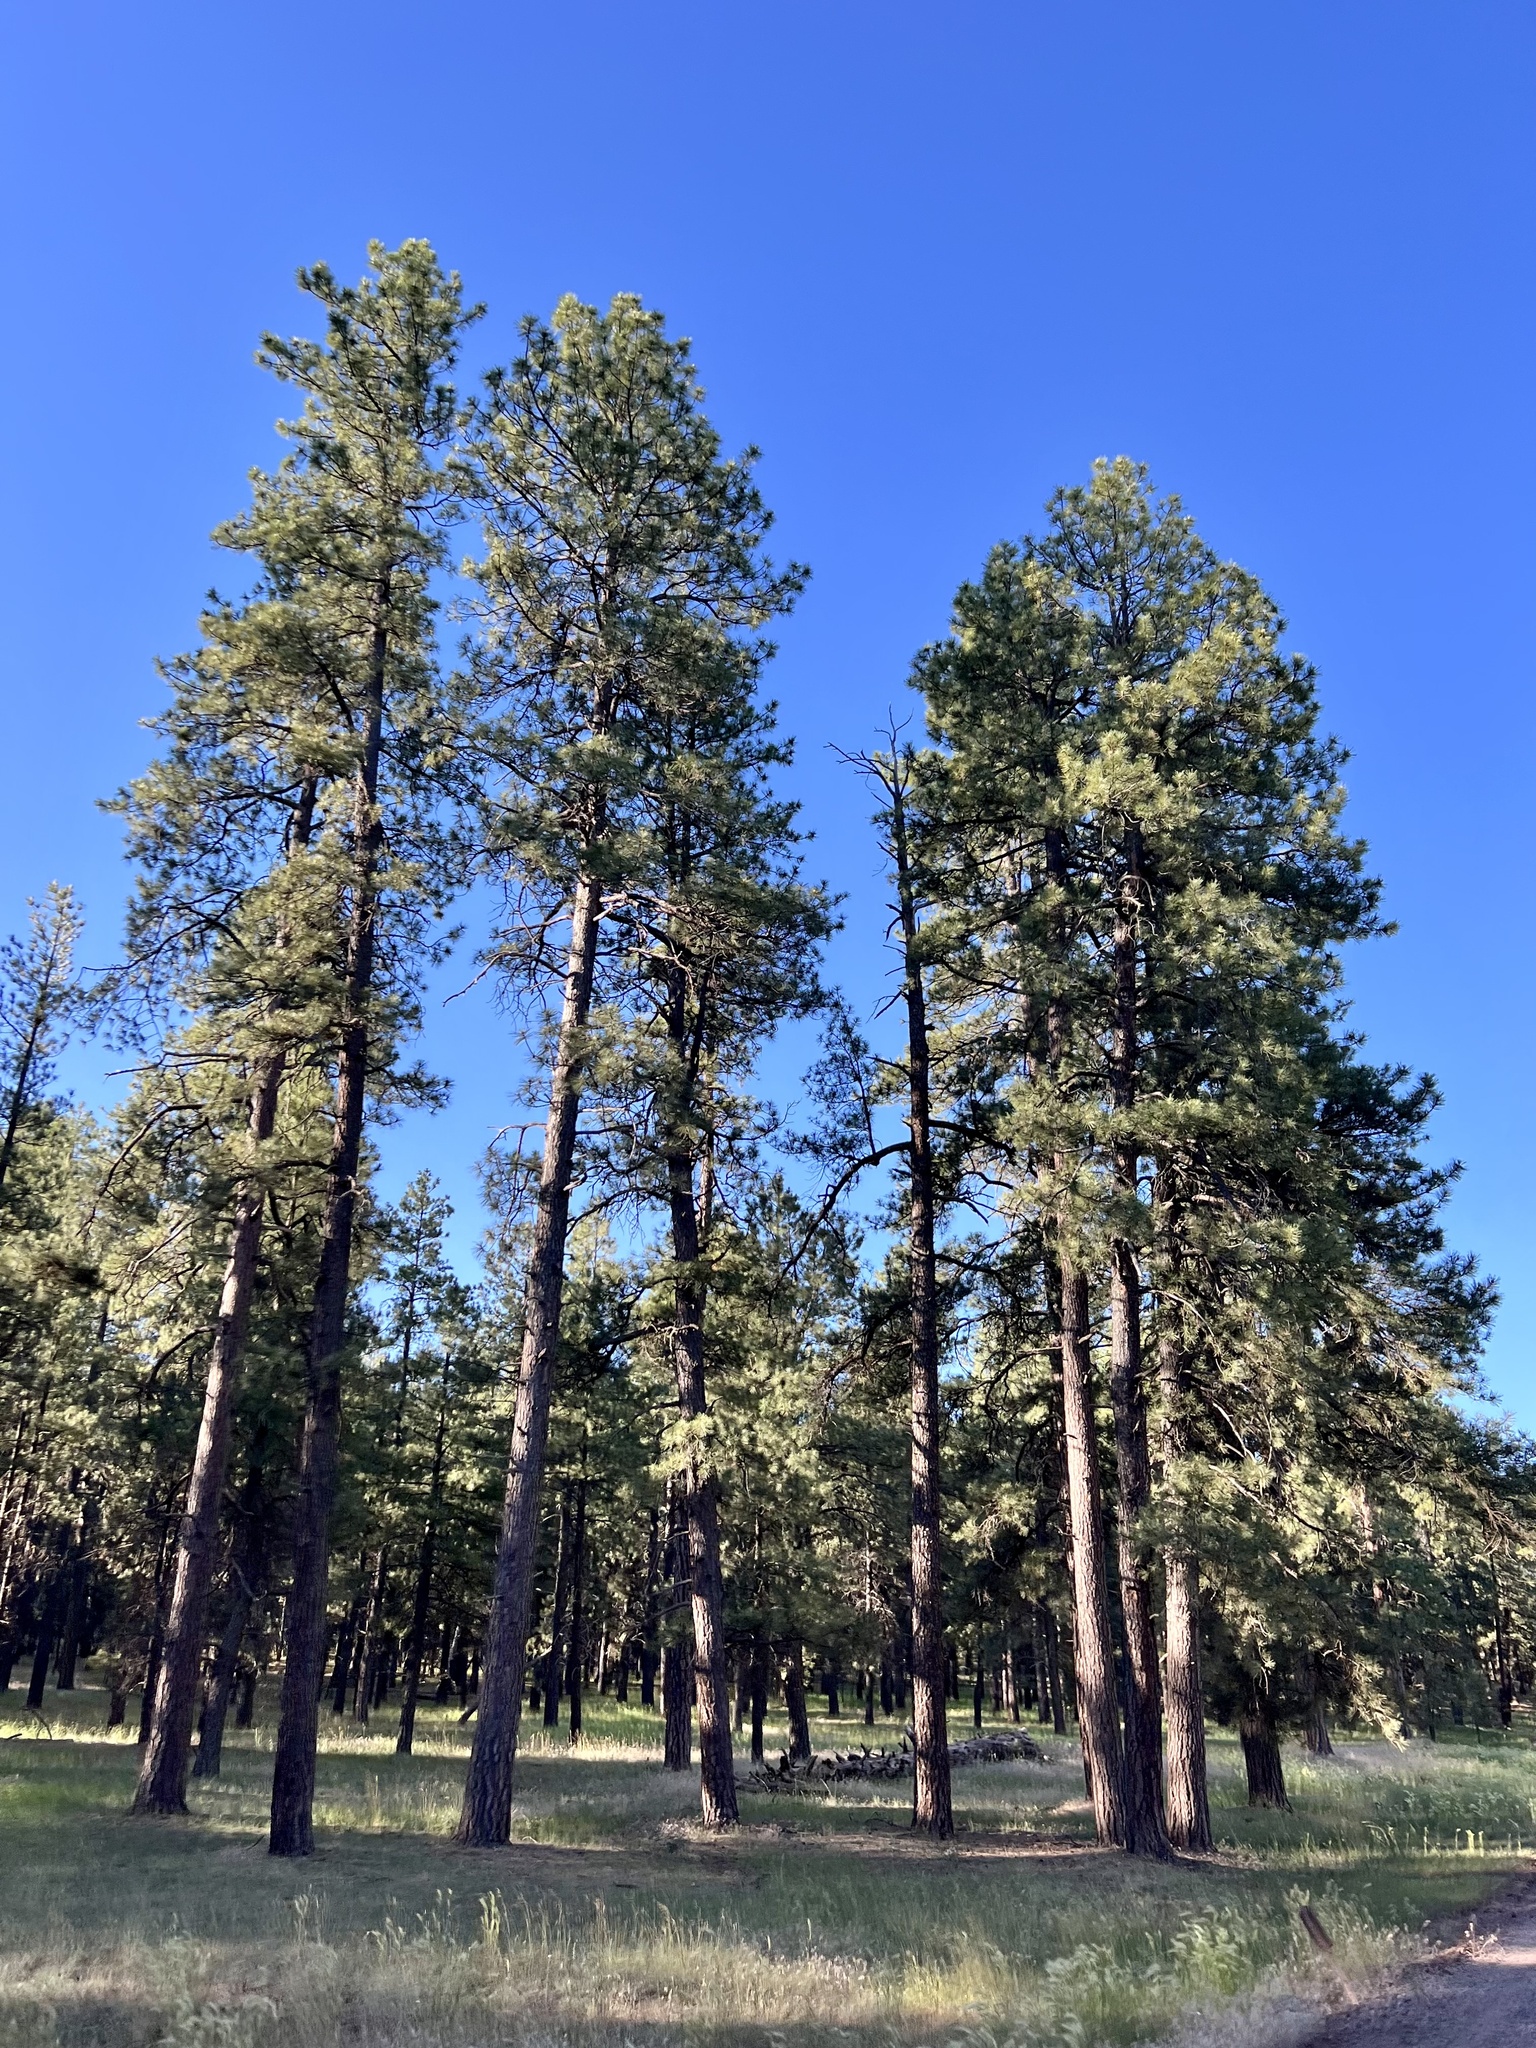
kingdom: Plantae
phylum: Tracheophyta
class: Pinopsida
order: Pinales
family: Pinaceae
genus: Pinus
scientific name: Pinus ponderosa
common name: Western yellow-pine
